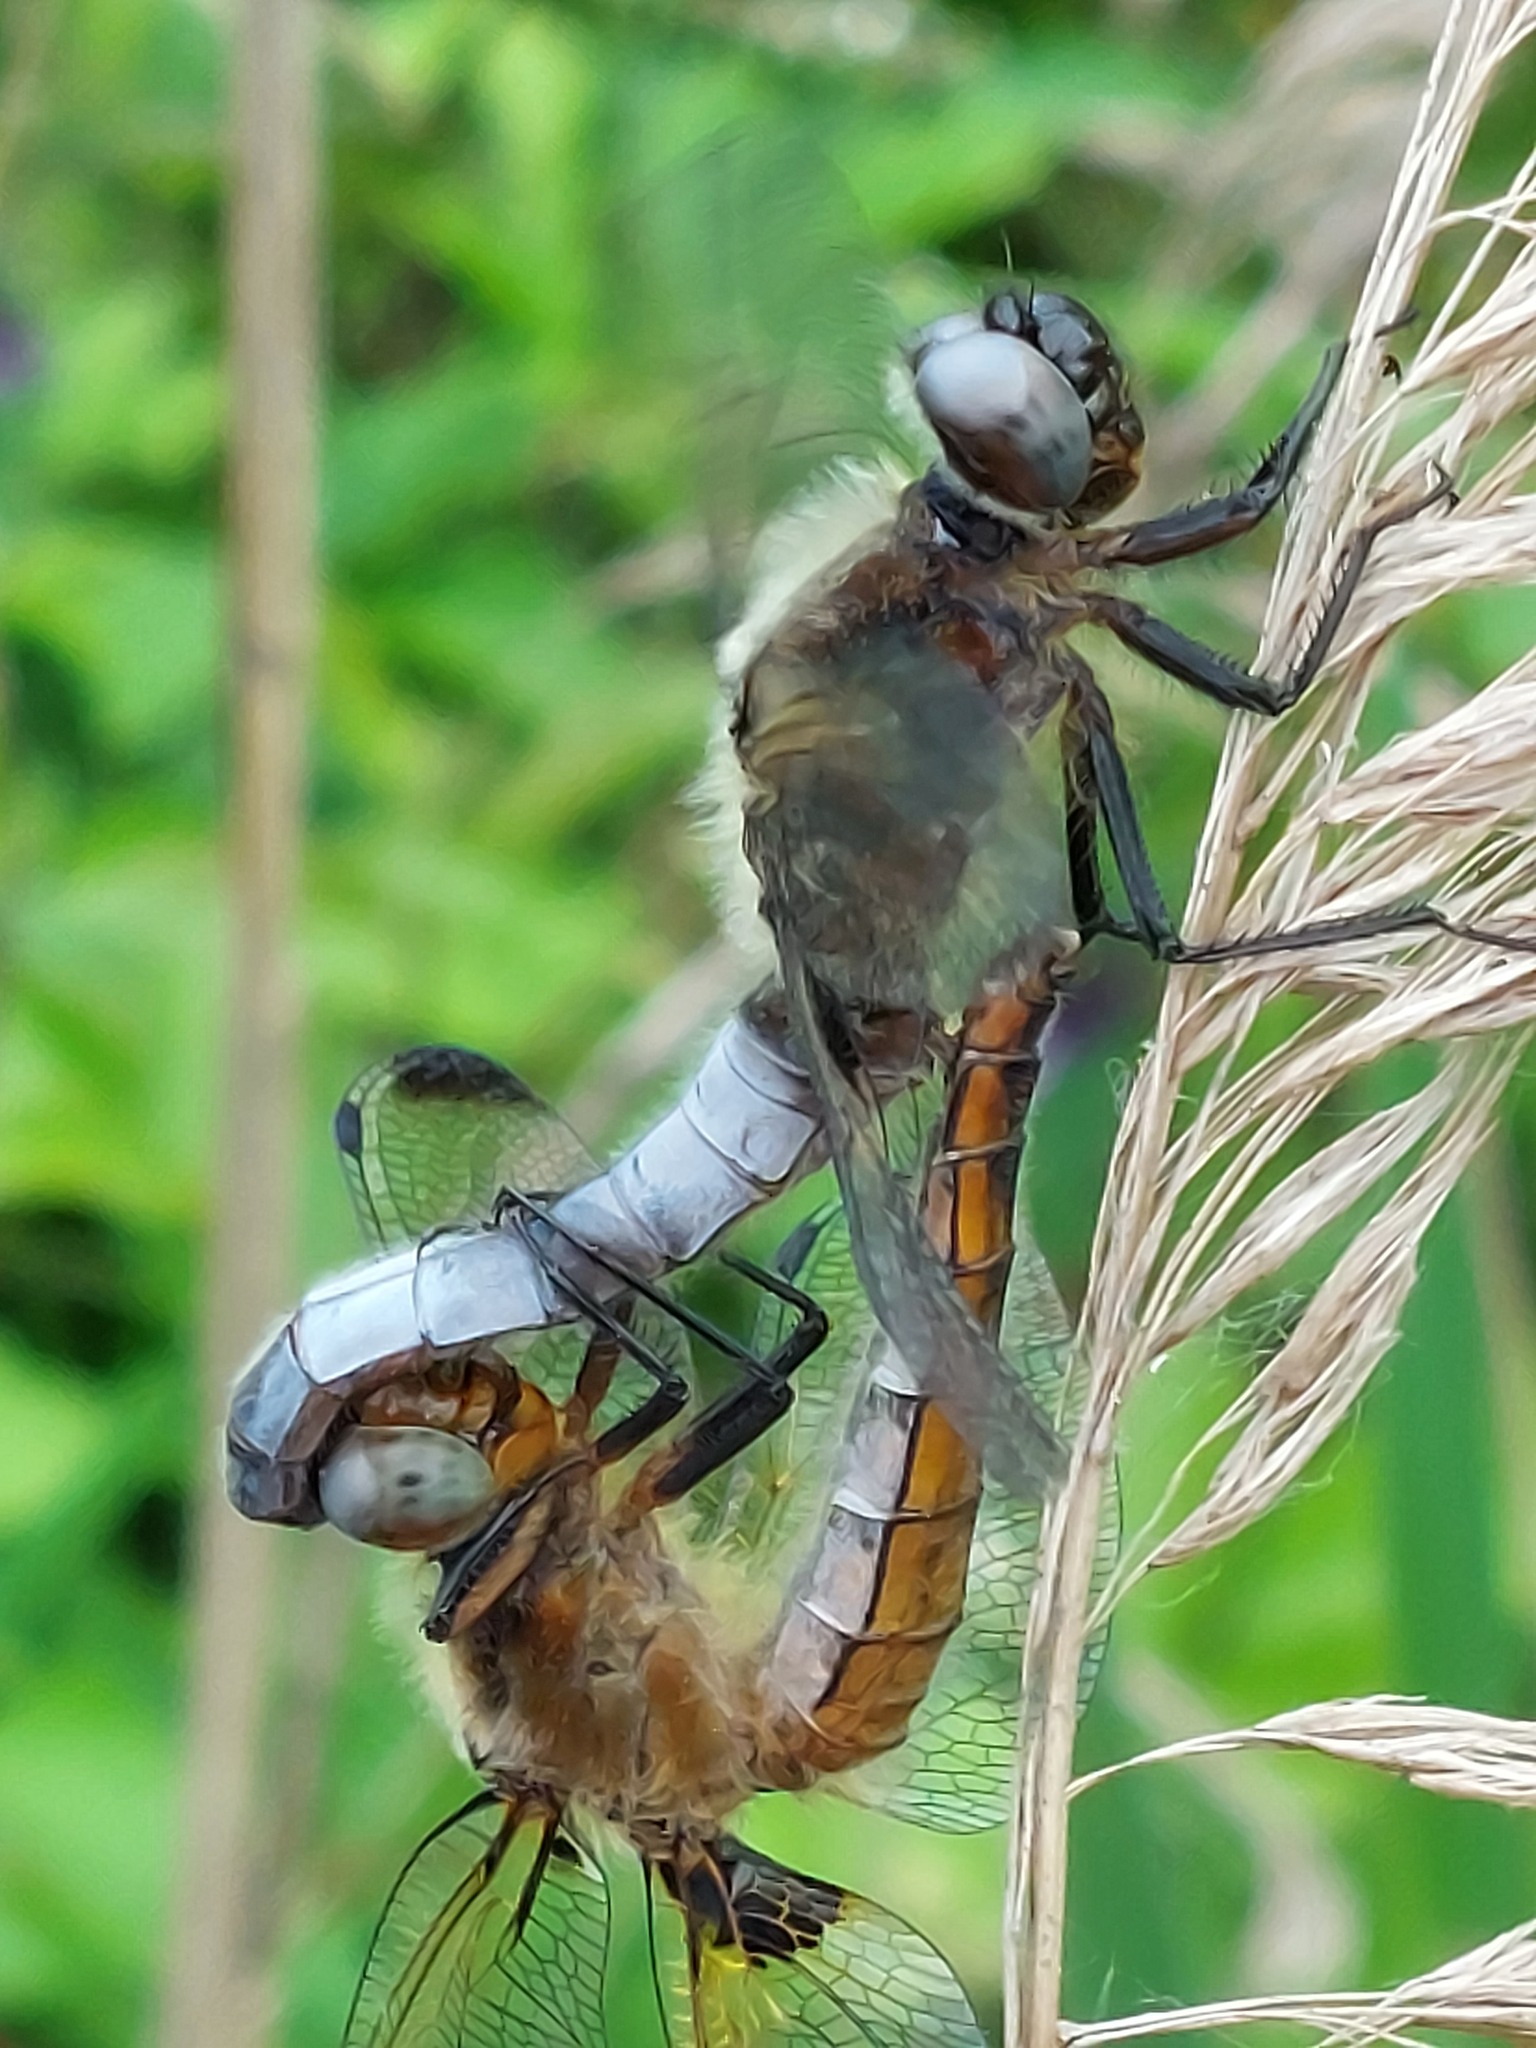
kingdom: Animalia
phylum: Arthropoda
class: Insecta
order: Odonata
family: Libellulidae
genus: Libellula
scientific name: Libellula fulva
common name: Blue chaser
